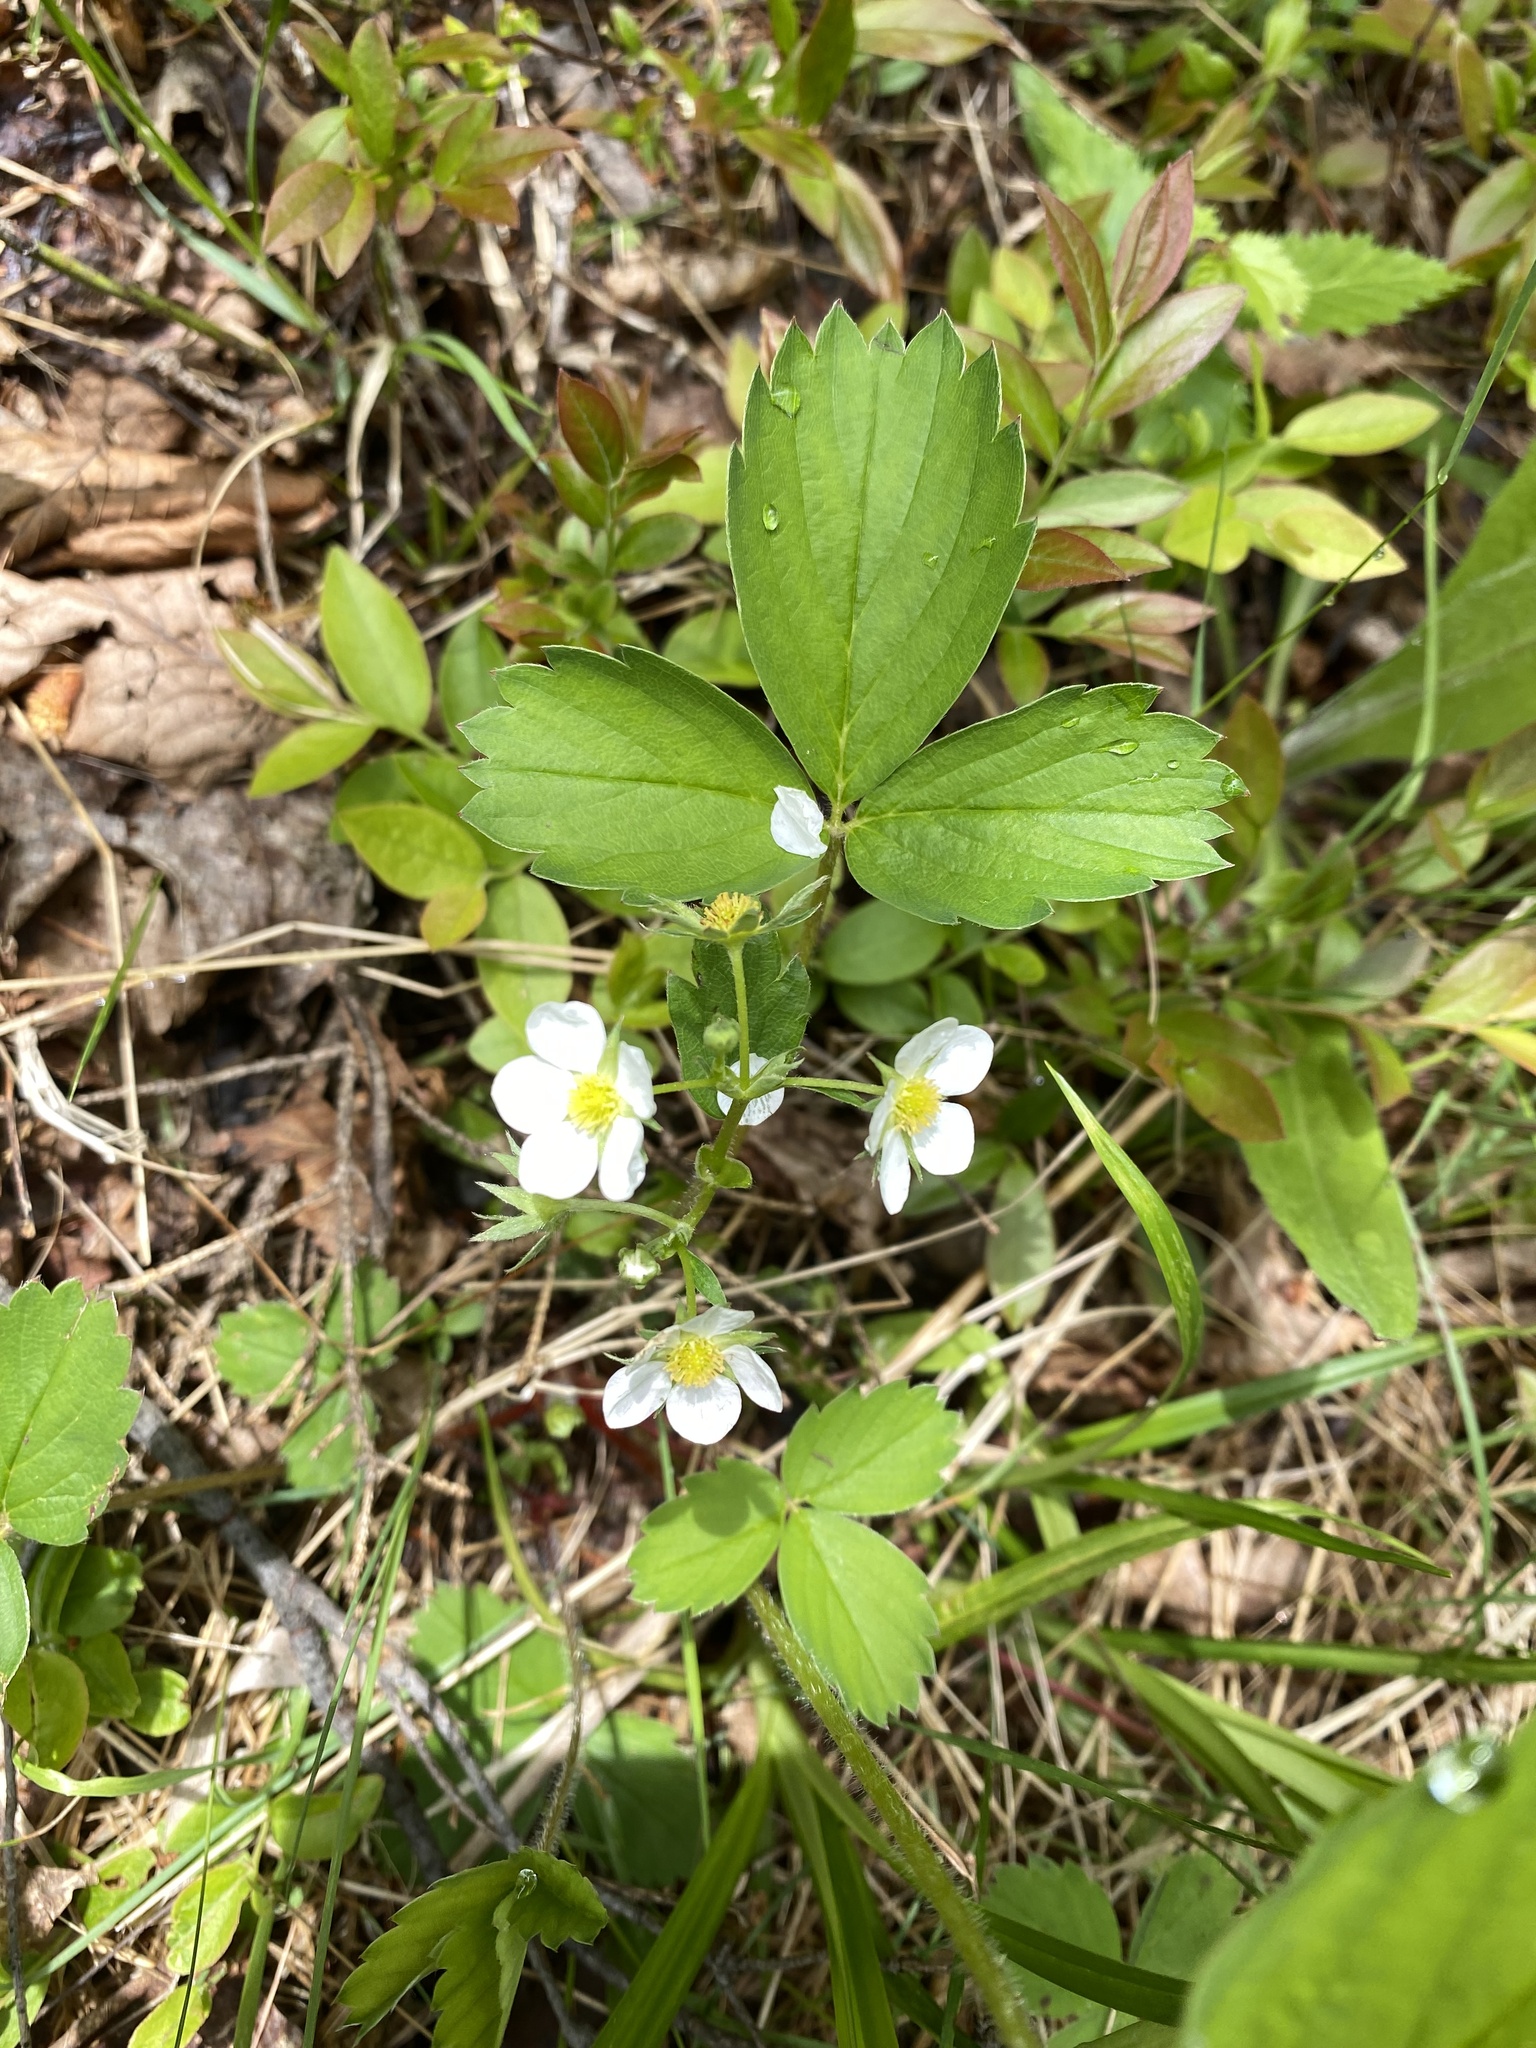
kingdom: Plantae
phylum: Tracheophyta
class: Magnoliopsida
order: Rosales
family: Rosaceae
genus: Fragaria
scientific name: Fragaria virginiana
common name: Thickleaved wild strawberry
